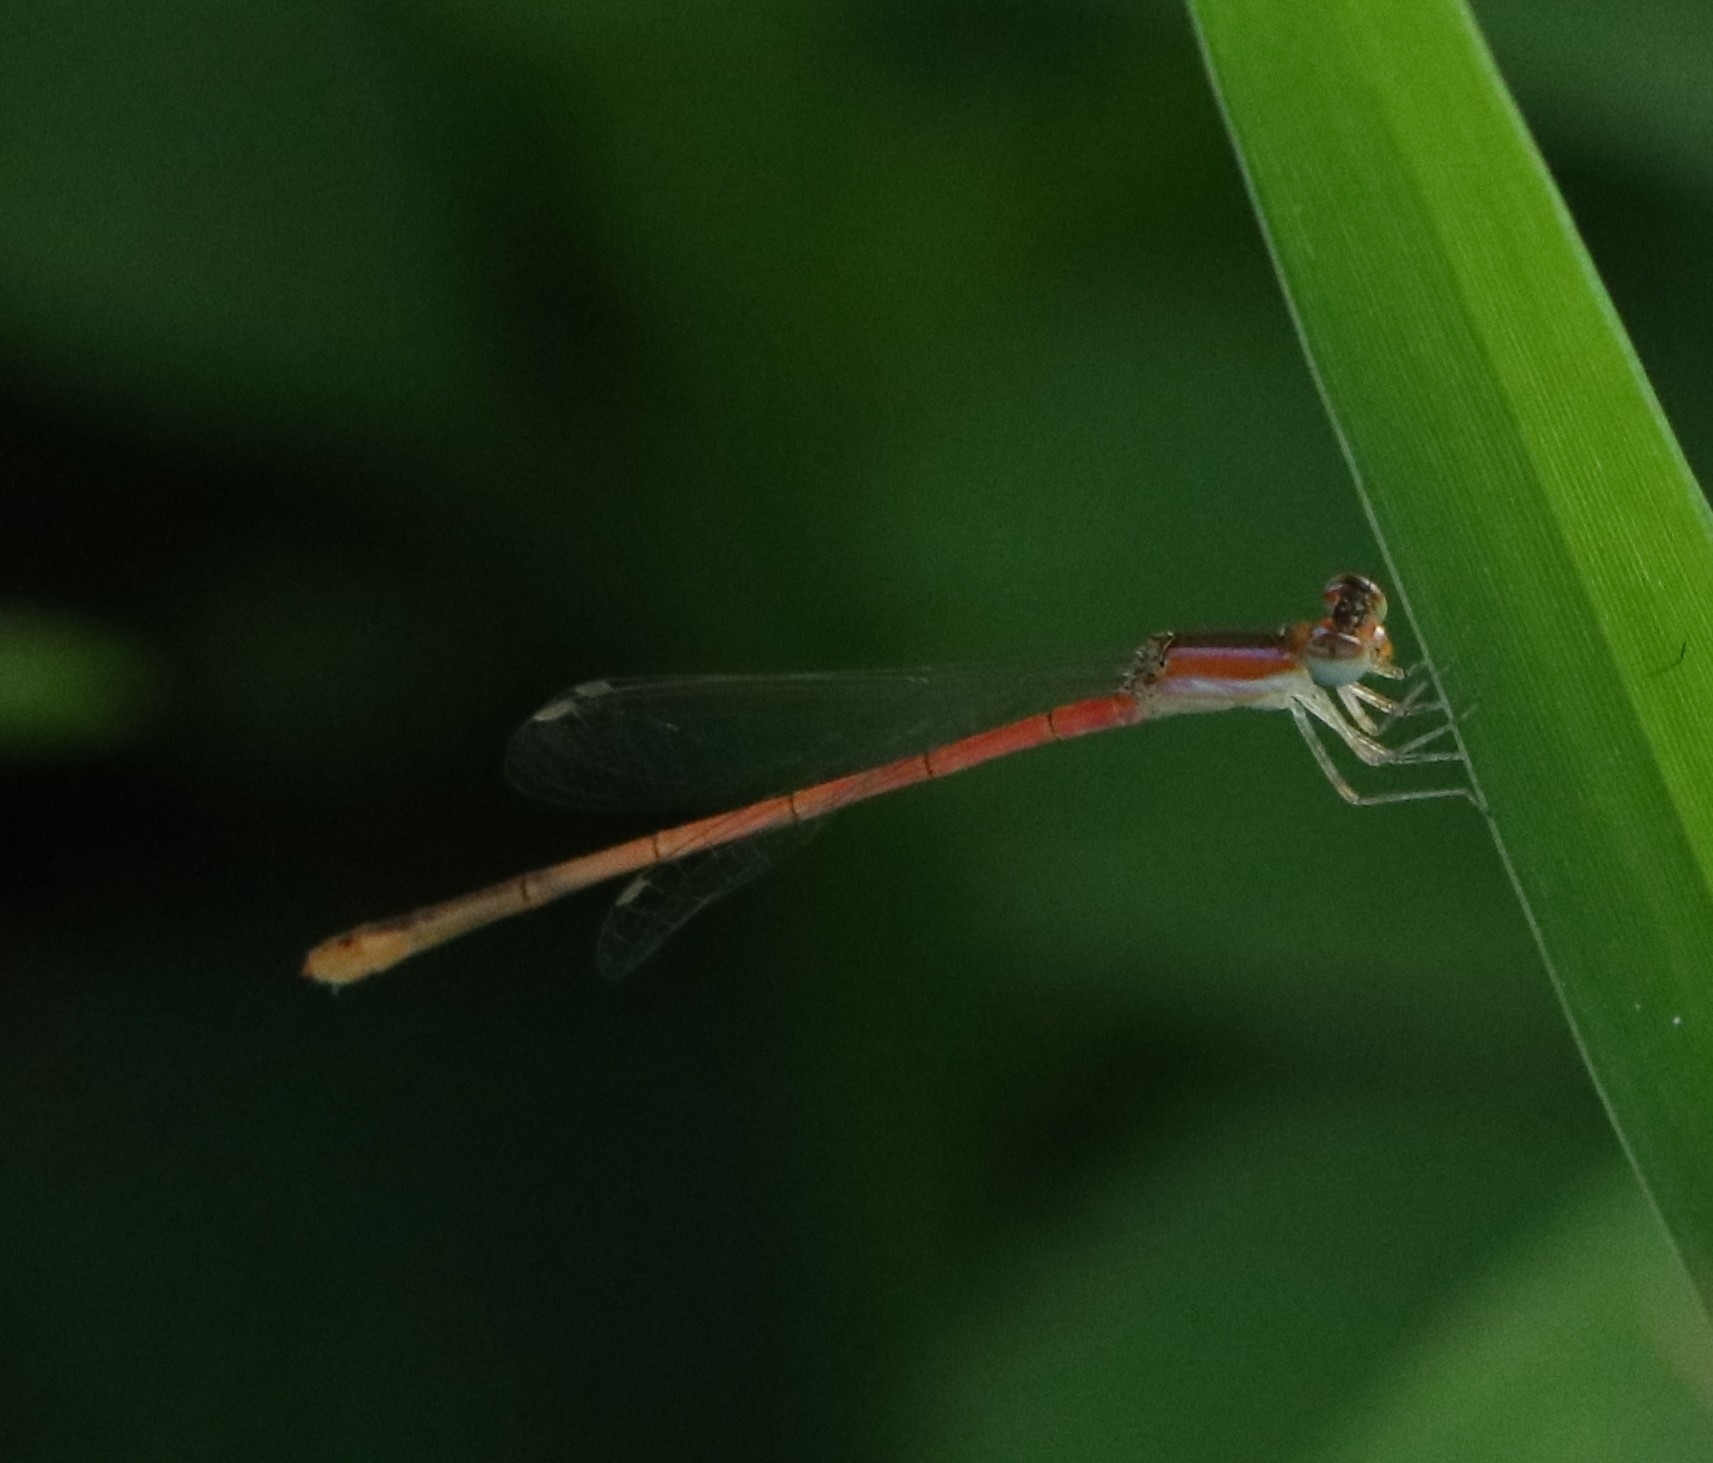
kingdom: Animalia
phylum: Arthropoda
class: Insecta
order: Odonata
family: Coenagrionidae
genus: Agriocnemis
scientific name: Agriocnemis pygmaea
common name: Pygmy wisp
